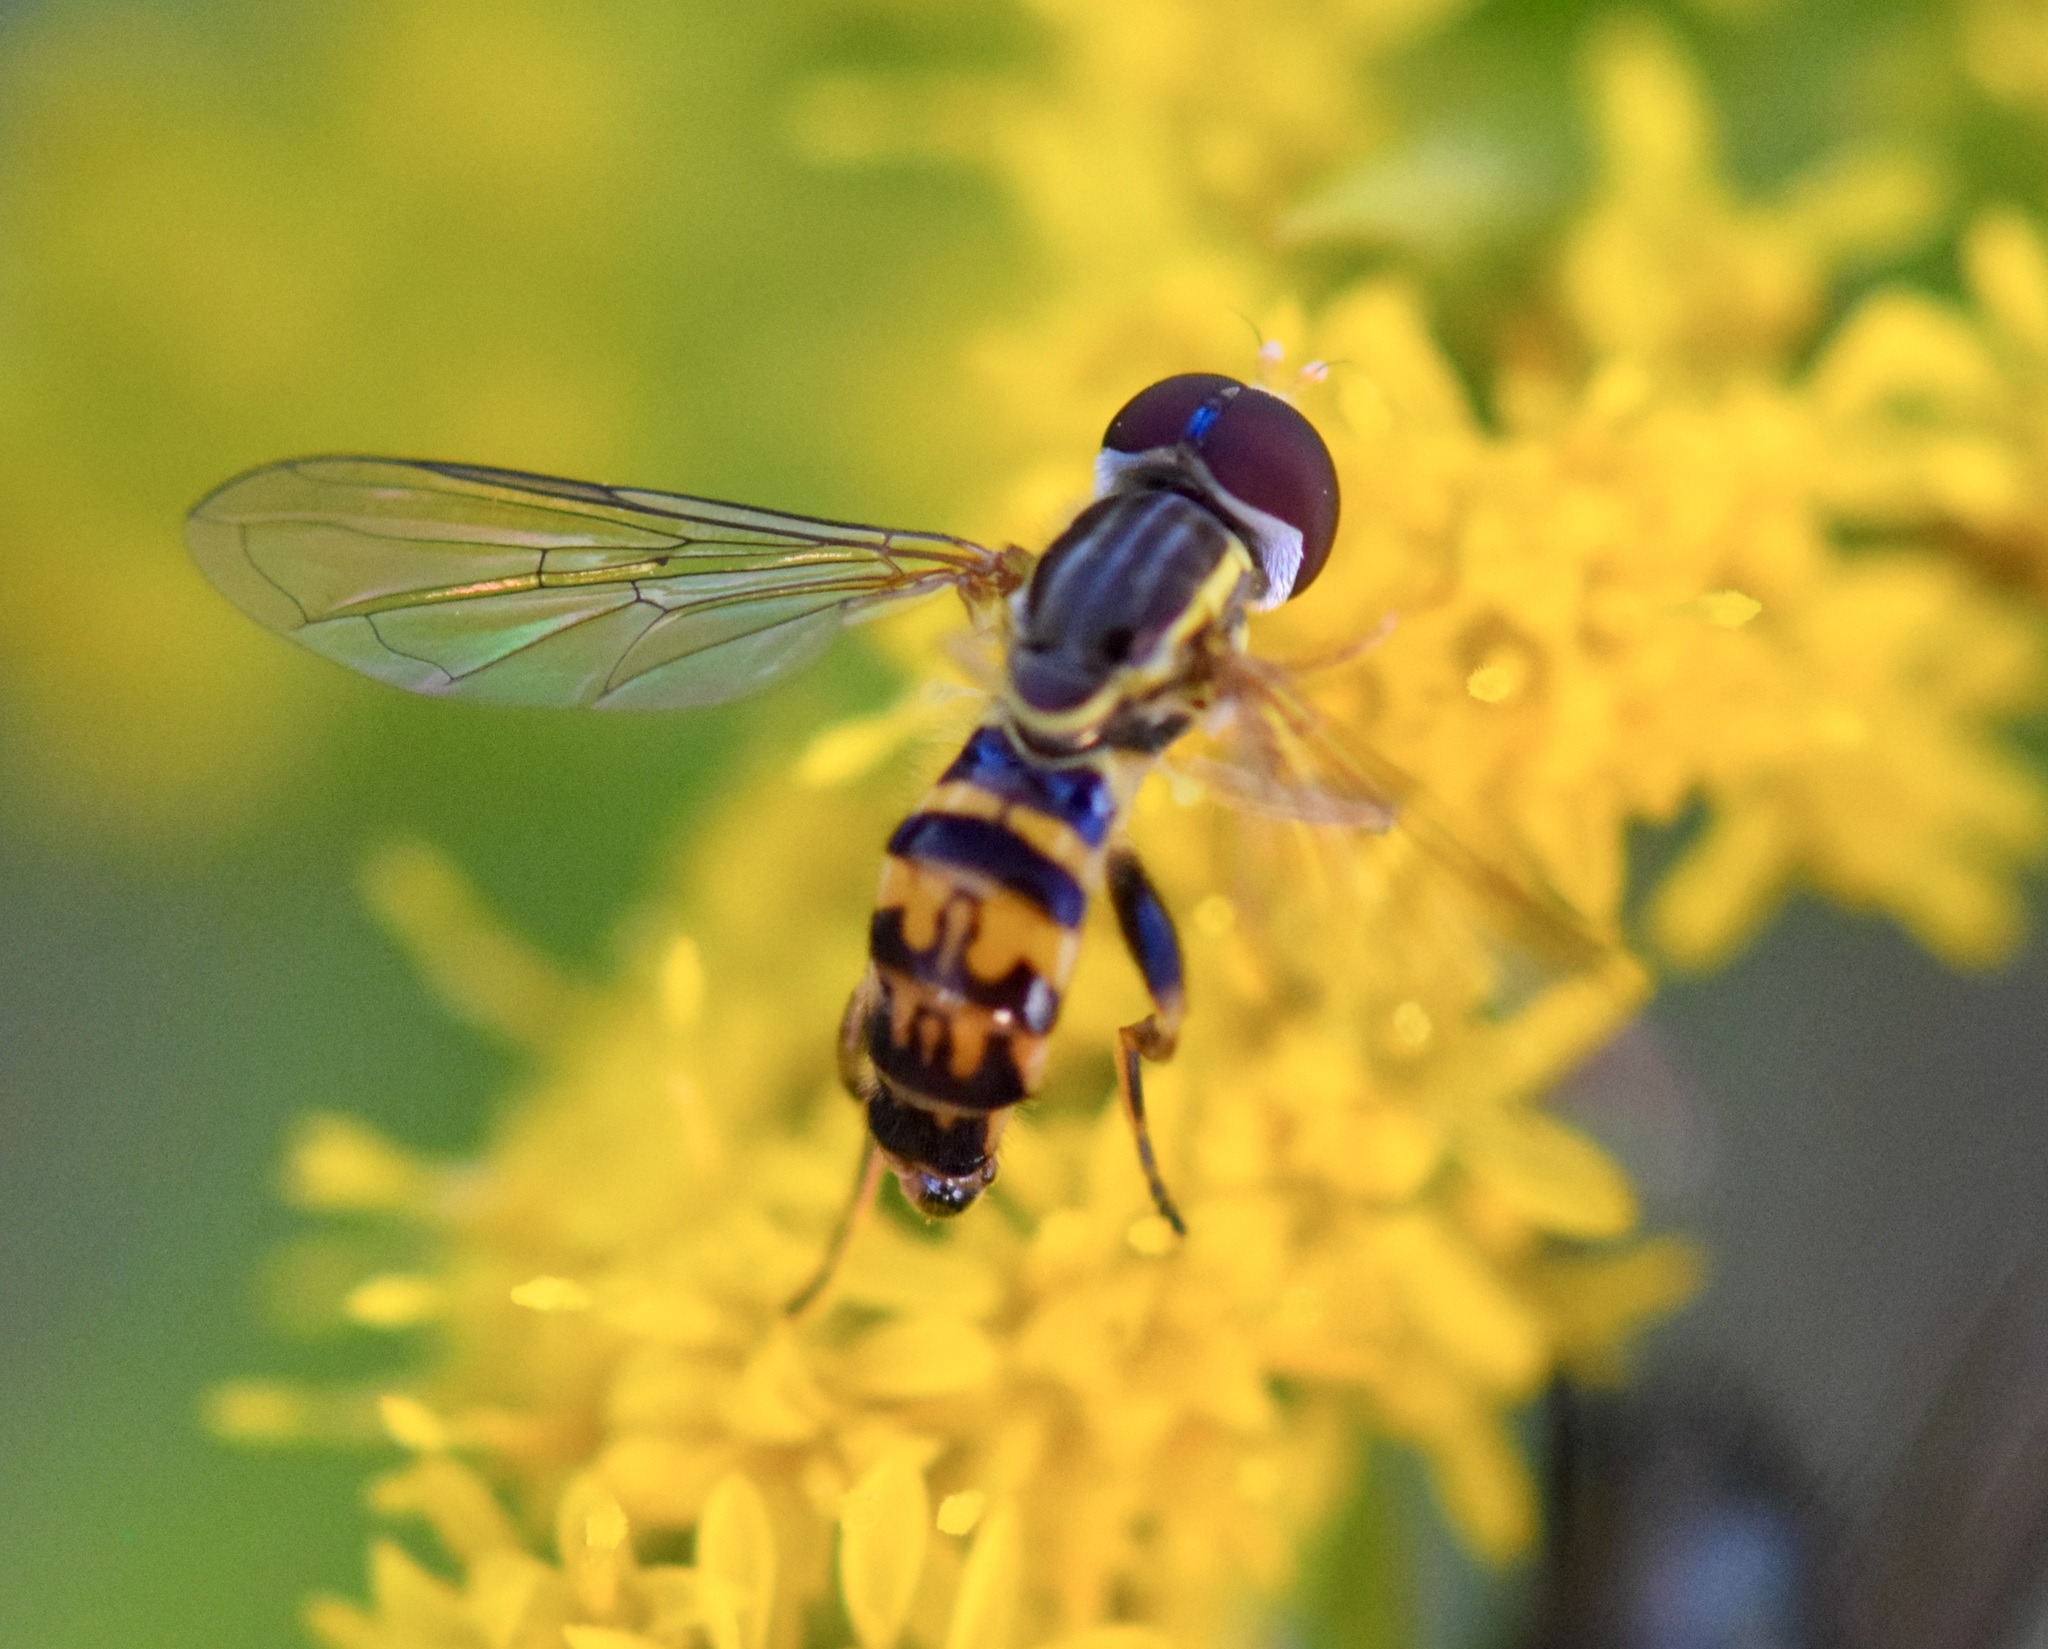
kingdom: Animalia
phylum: Arthropoda
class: Insecta
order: Diptera
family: Syrphidae
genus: Toxomerus
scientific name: Toxomerus geminatus
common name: Eastern calligrapher
